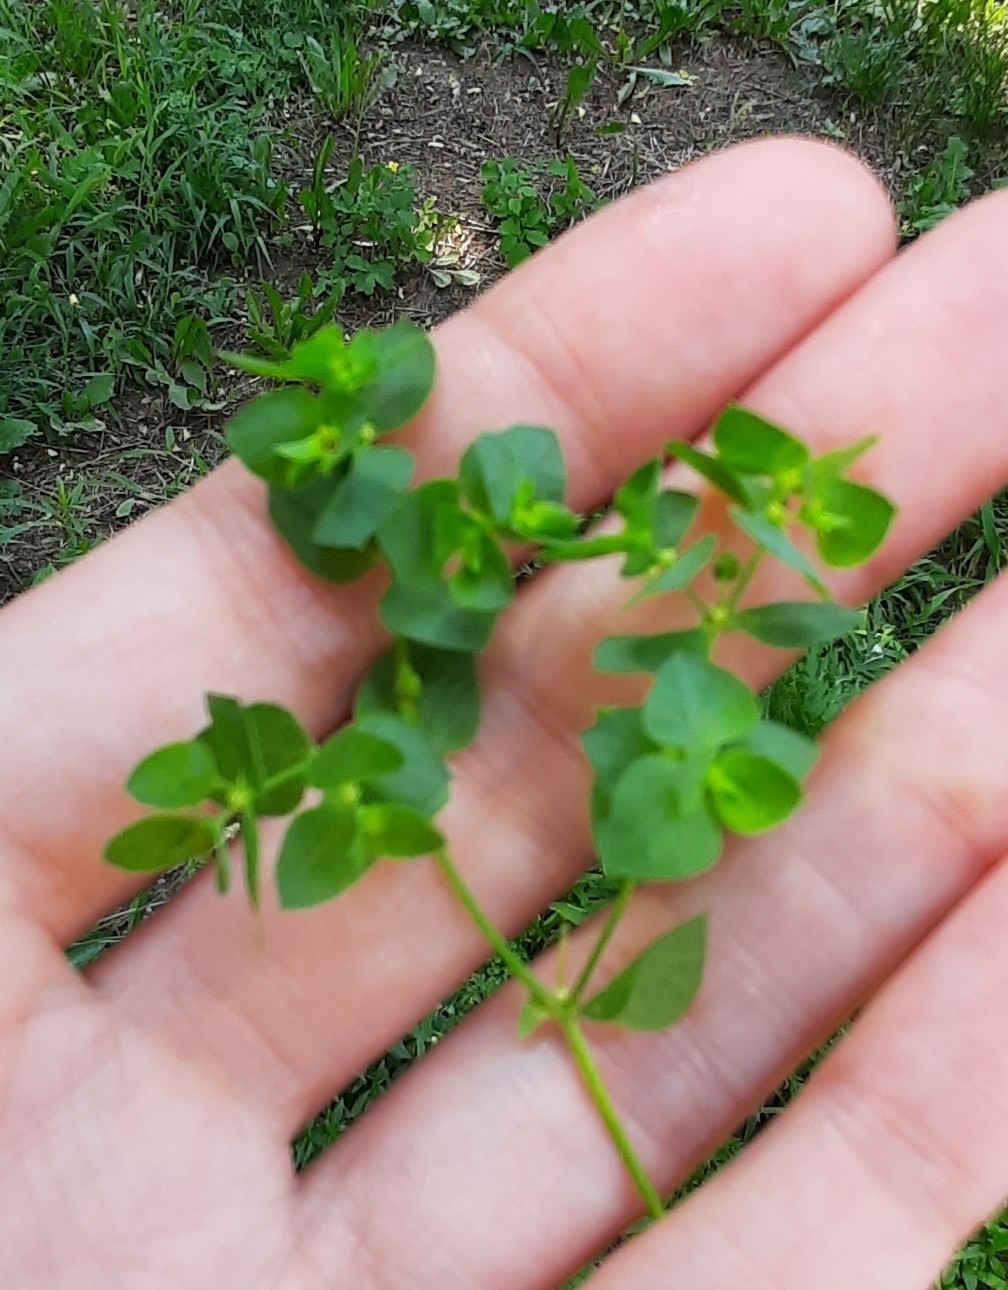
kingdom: Plantae
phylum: Tracheophyta
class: Magnoliopsida
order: Malpighiales
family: Euphorbiaceae
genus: Euphorbia
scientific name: Euphorbia peplus
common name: Petty spurge
